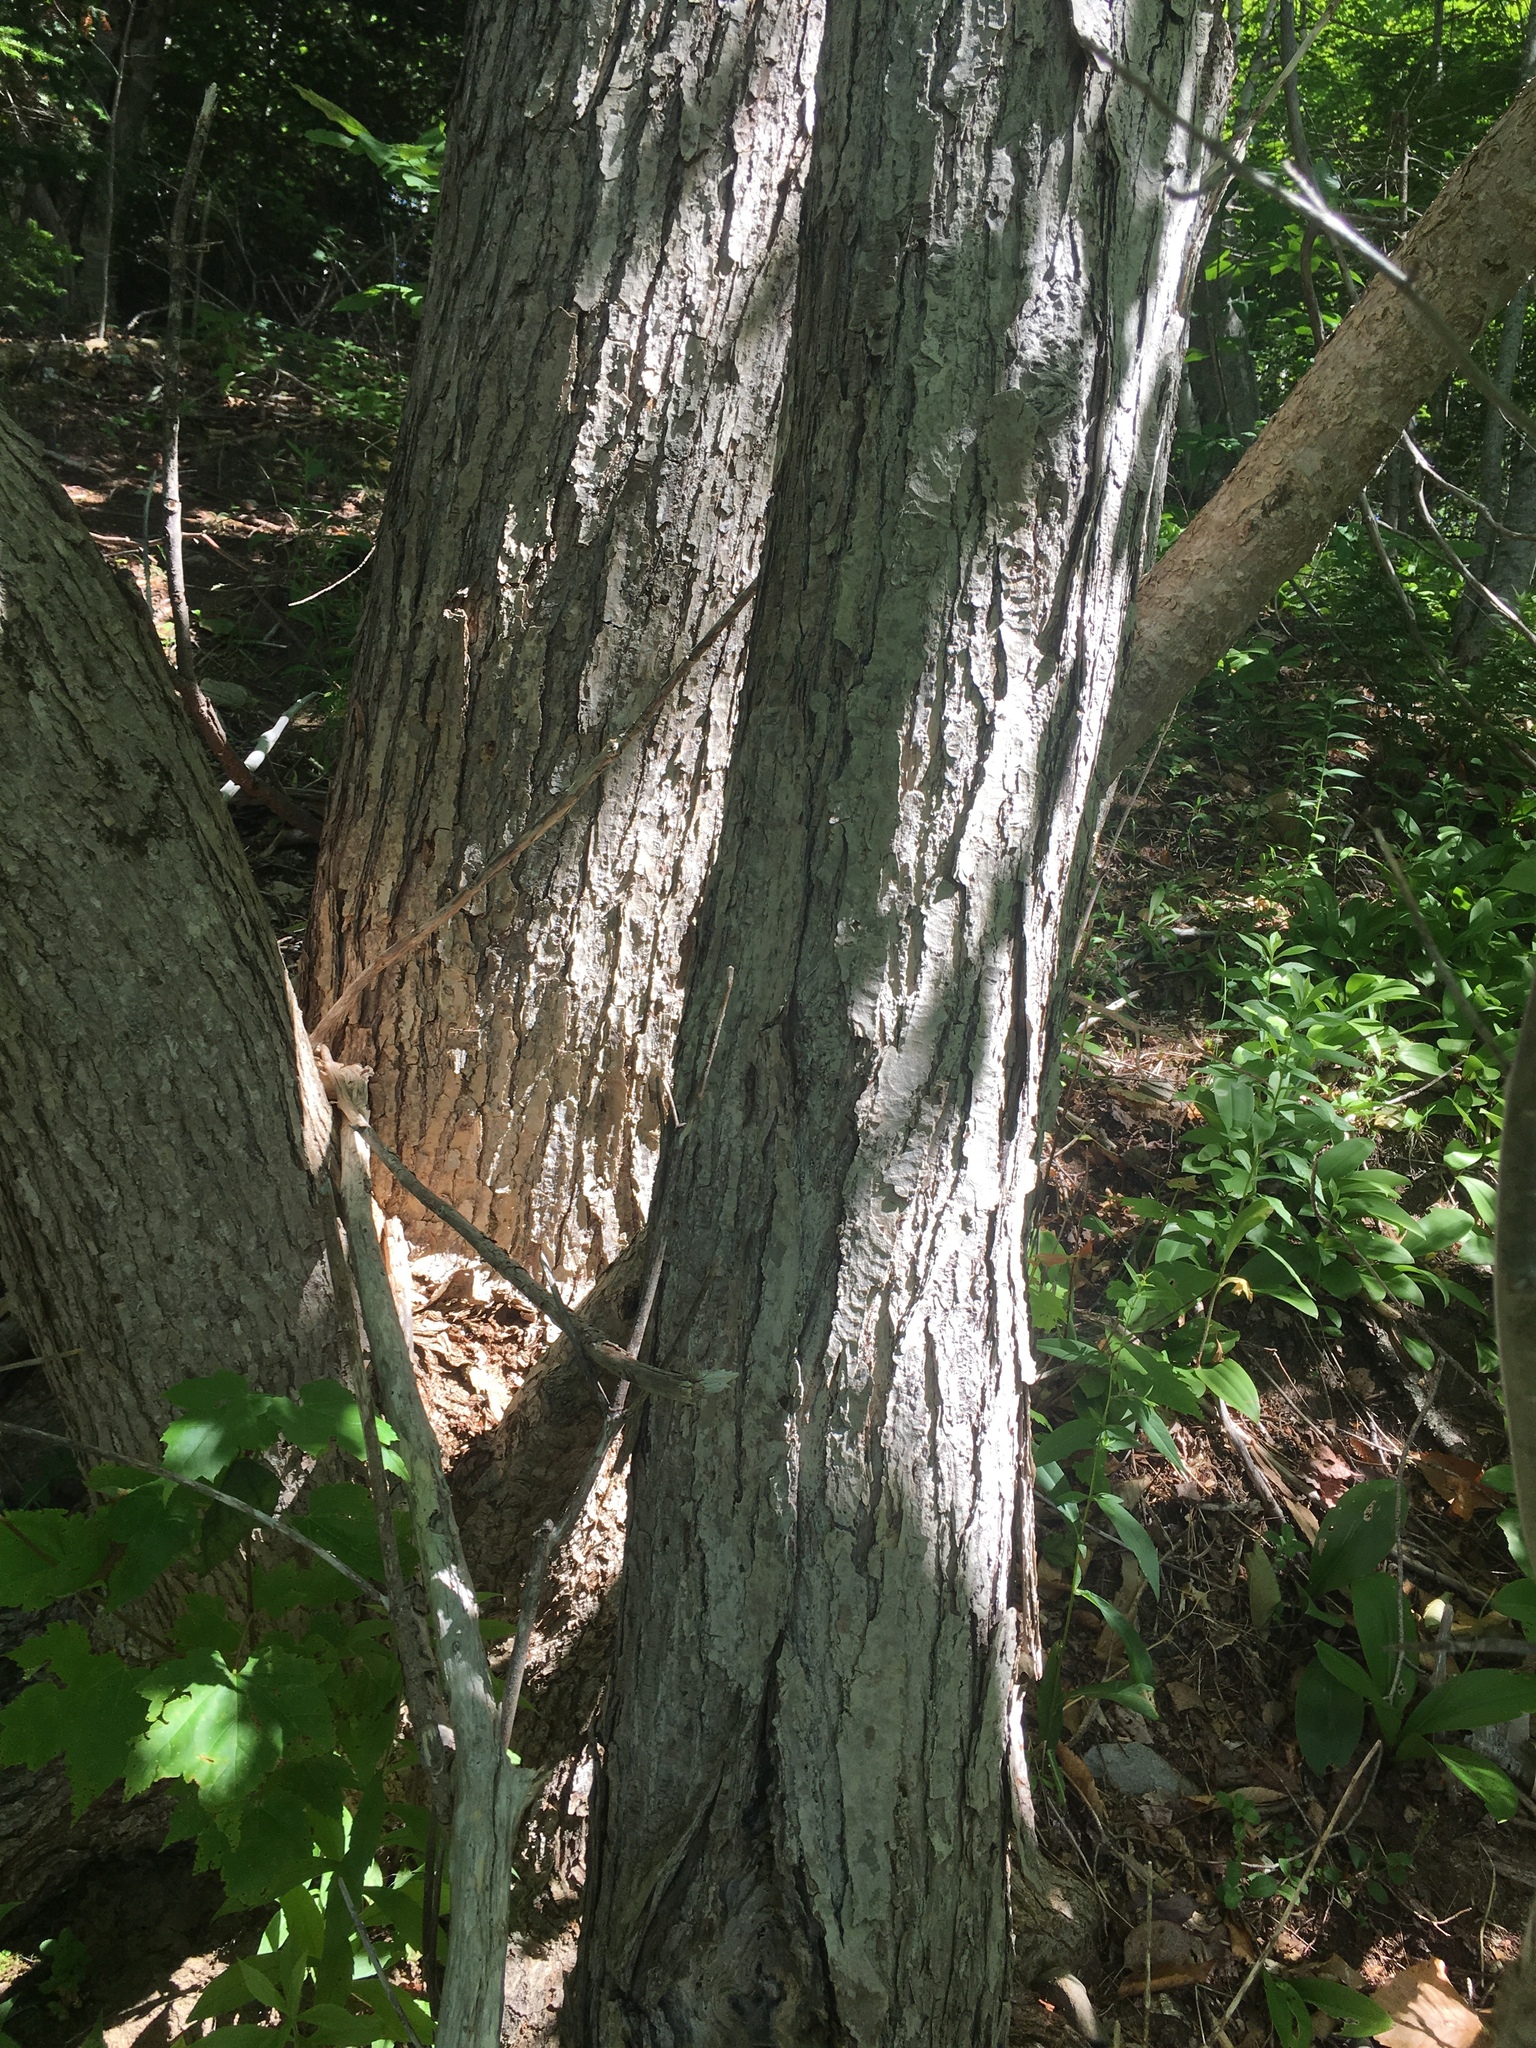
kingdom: Plantae
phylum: Tracheophyta
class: Magnoliopsida
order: Sapindales
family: Sapindaceae
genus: Acer
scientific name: Acer rubrum
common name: Red maple
